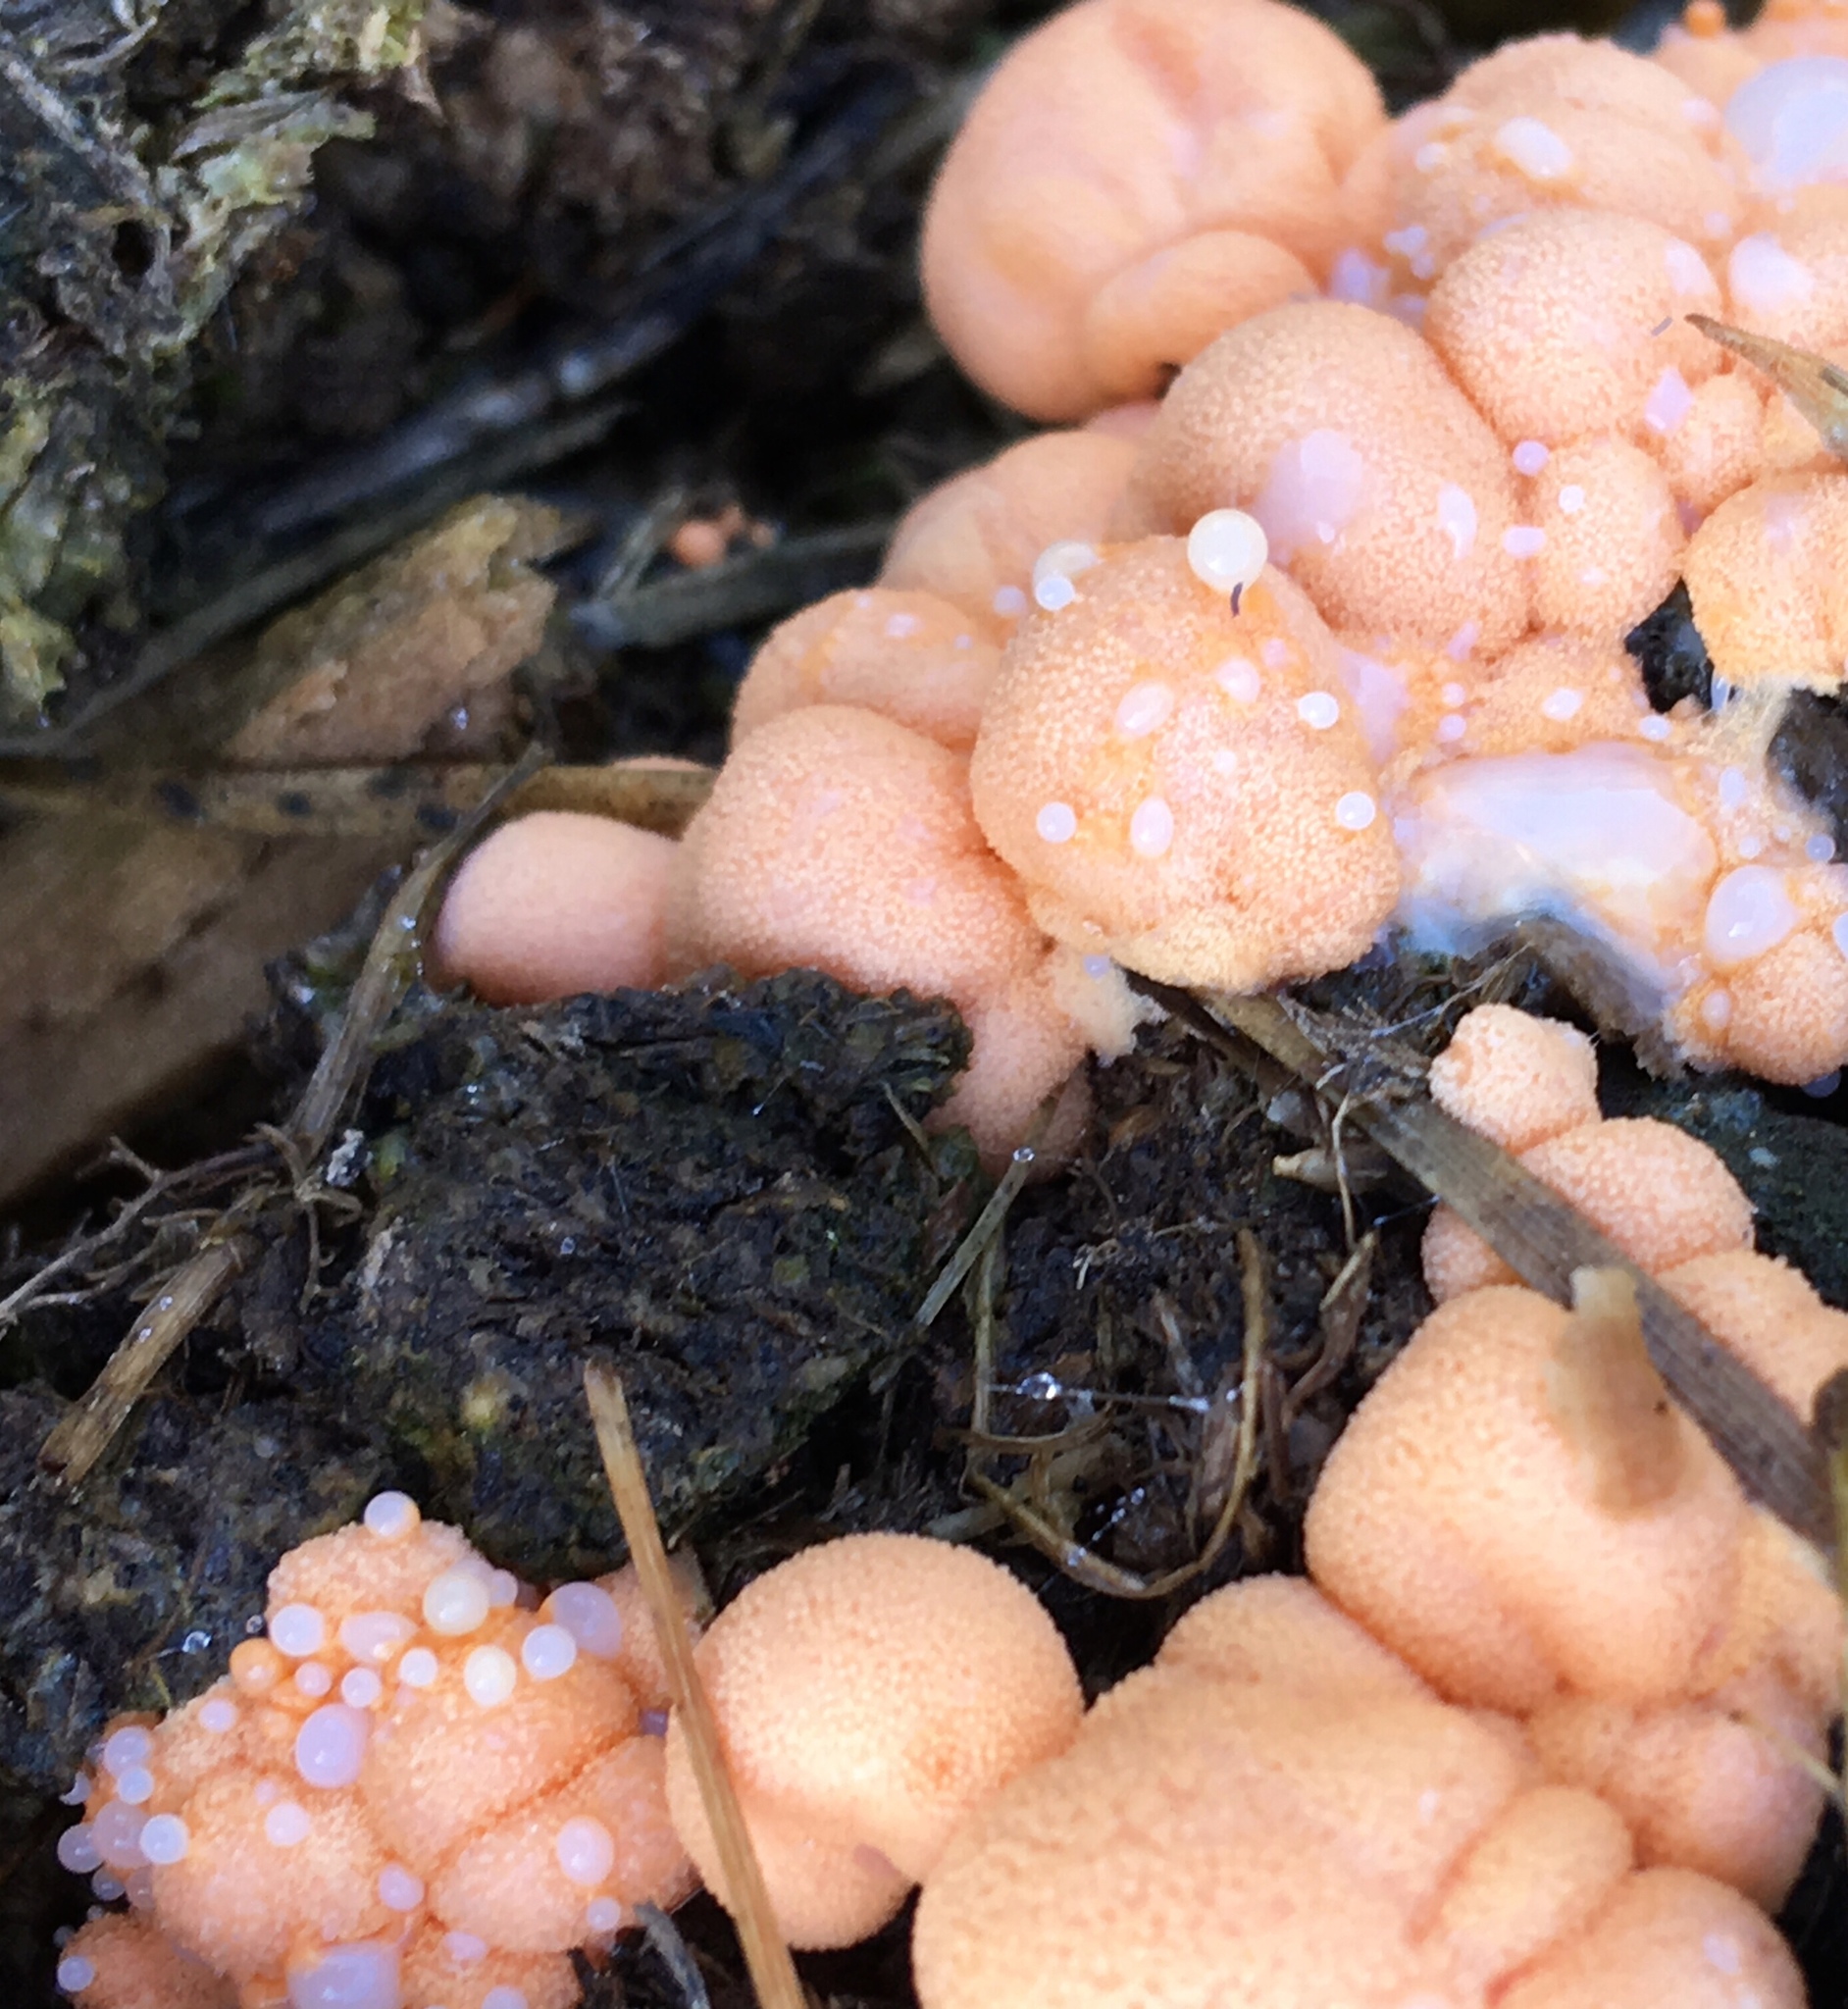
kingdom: Protozoa
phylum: Mycetozoa
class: Myxomycetes
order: Cribrariales
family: Tubiferaceae
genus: Lycogala
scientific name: Lycogala epidendrum
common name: Wolf's milk
